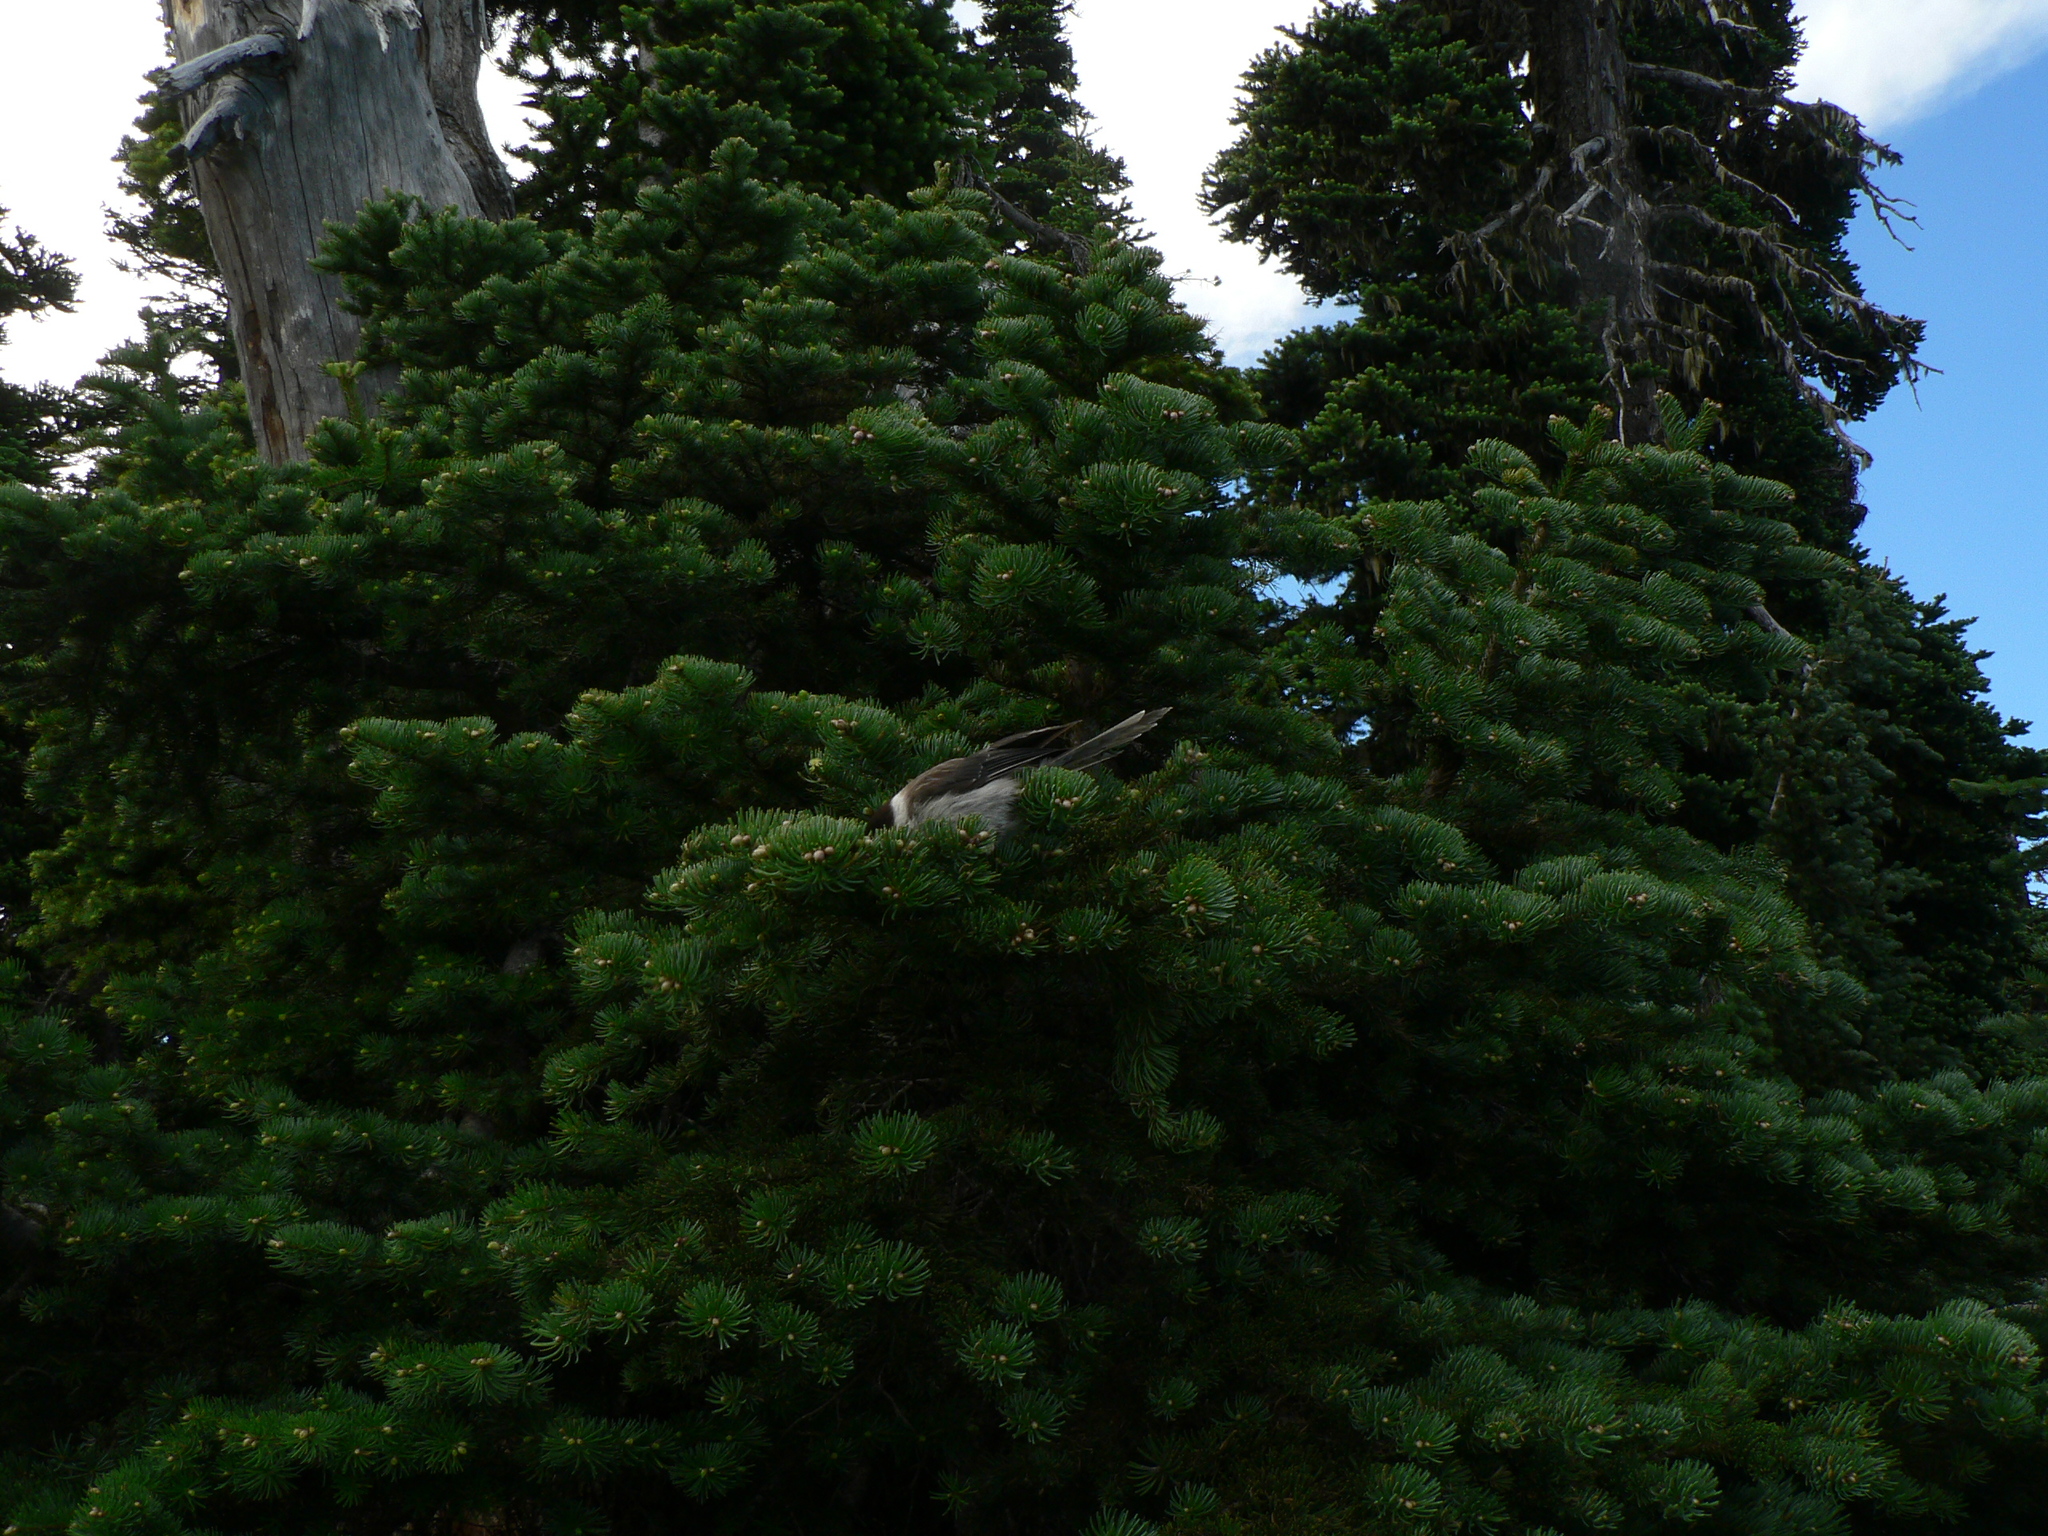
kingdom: Animalia
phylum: Chordata
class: Aves
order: Passeriformes
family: Corvidae
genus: Perisoreus
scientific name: Perisoreus canadensis
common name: Gray jay
